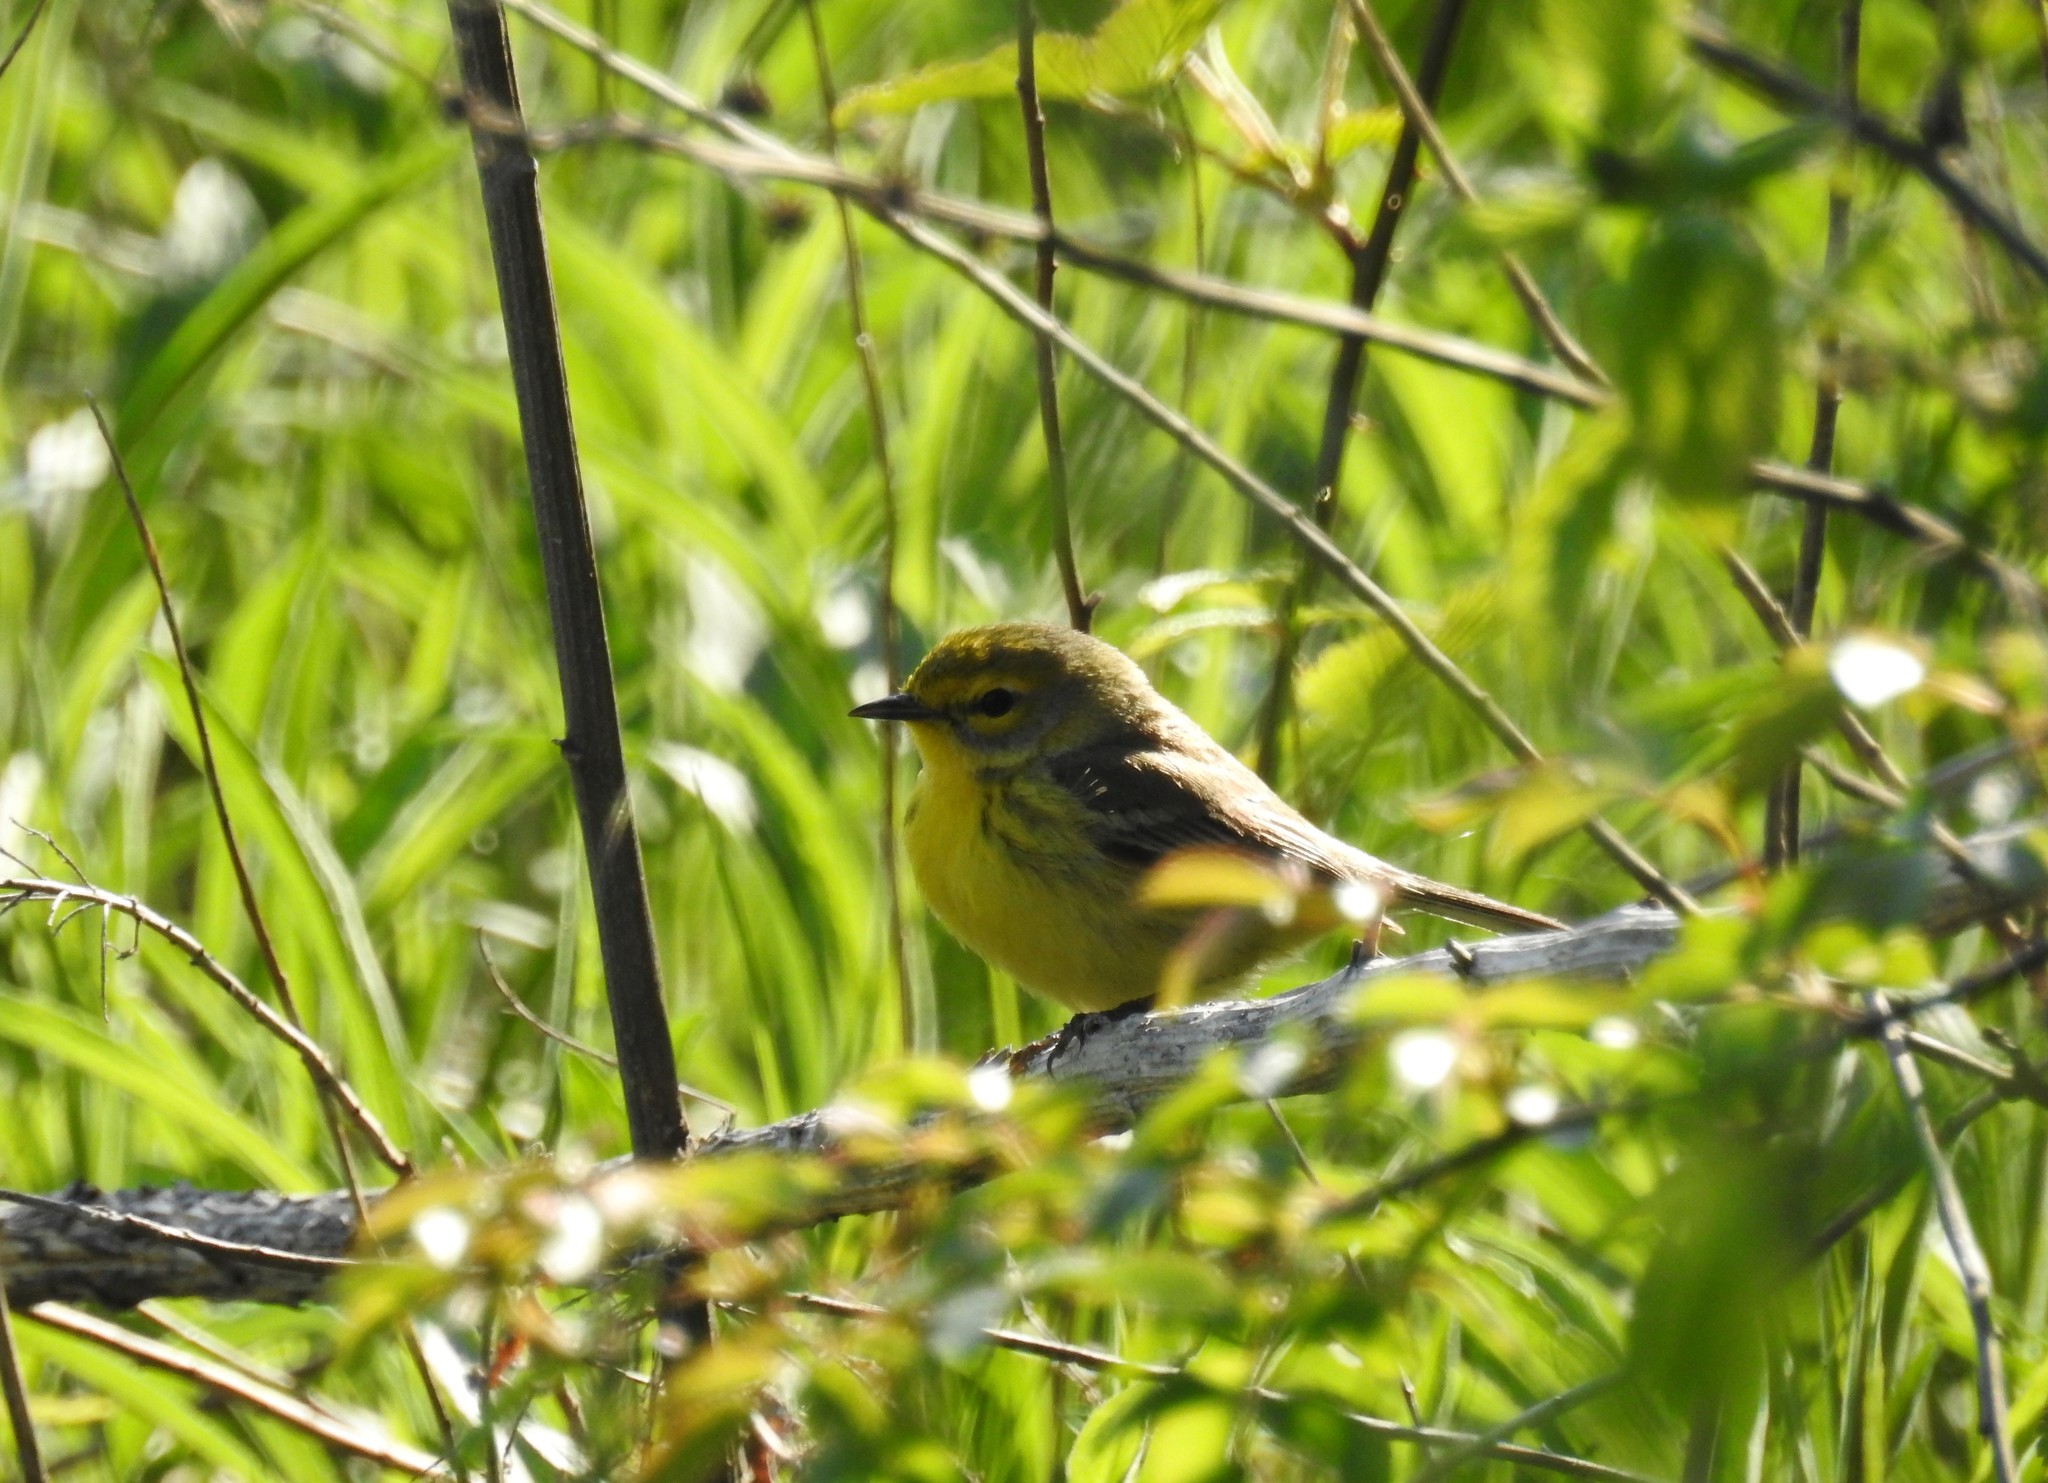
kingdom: Animalia
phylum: Chordata
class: Aves
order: Passeriformes
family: Parulidae
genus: Setophaga
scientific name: Setophaga discolor
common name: Prairie warbler
